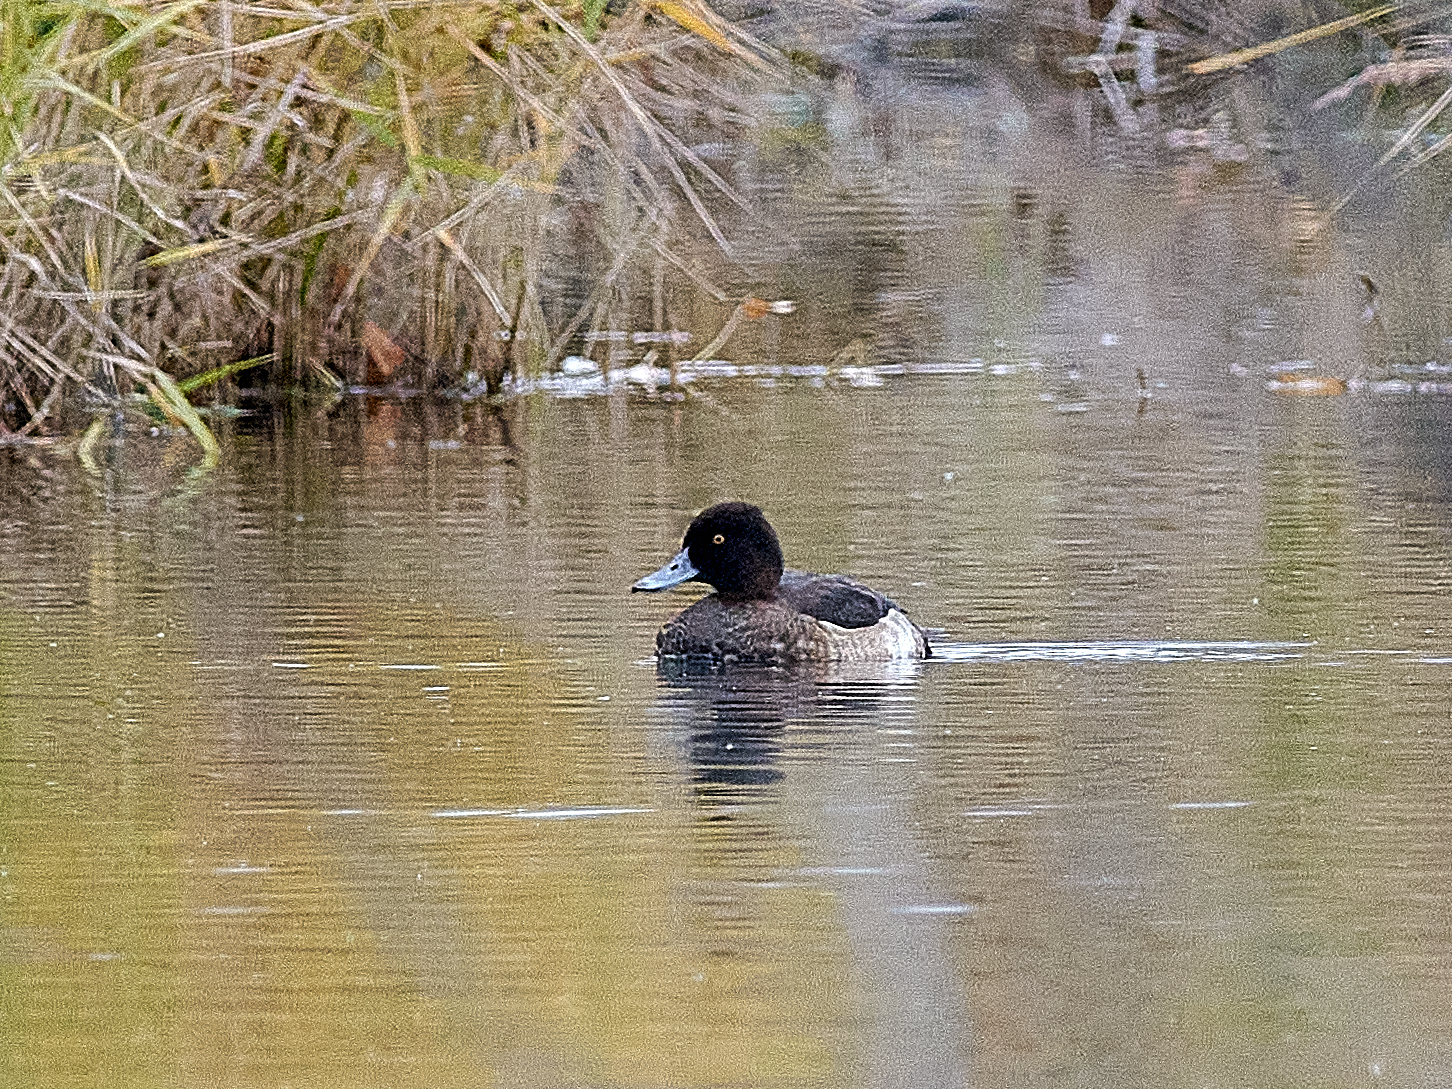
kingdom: Animalia
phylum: Chordata
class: Aves
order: Anseriformes
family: Anatidae
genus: Aythya
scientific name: Aythya fuligula
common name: Tufted duck
